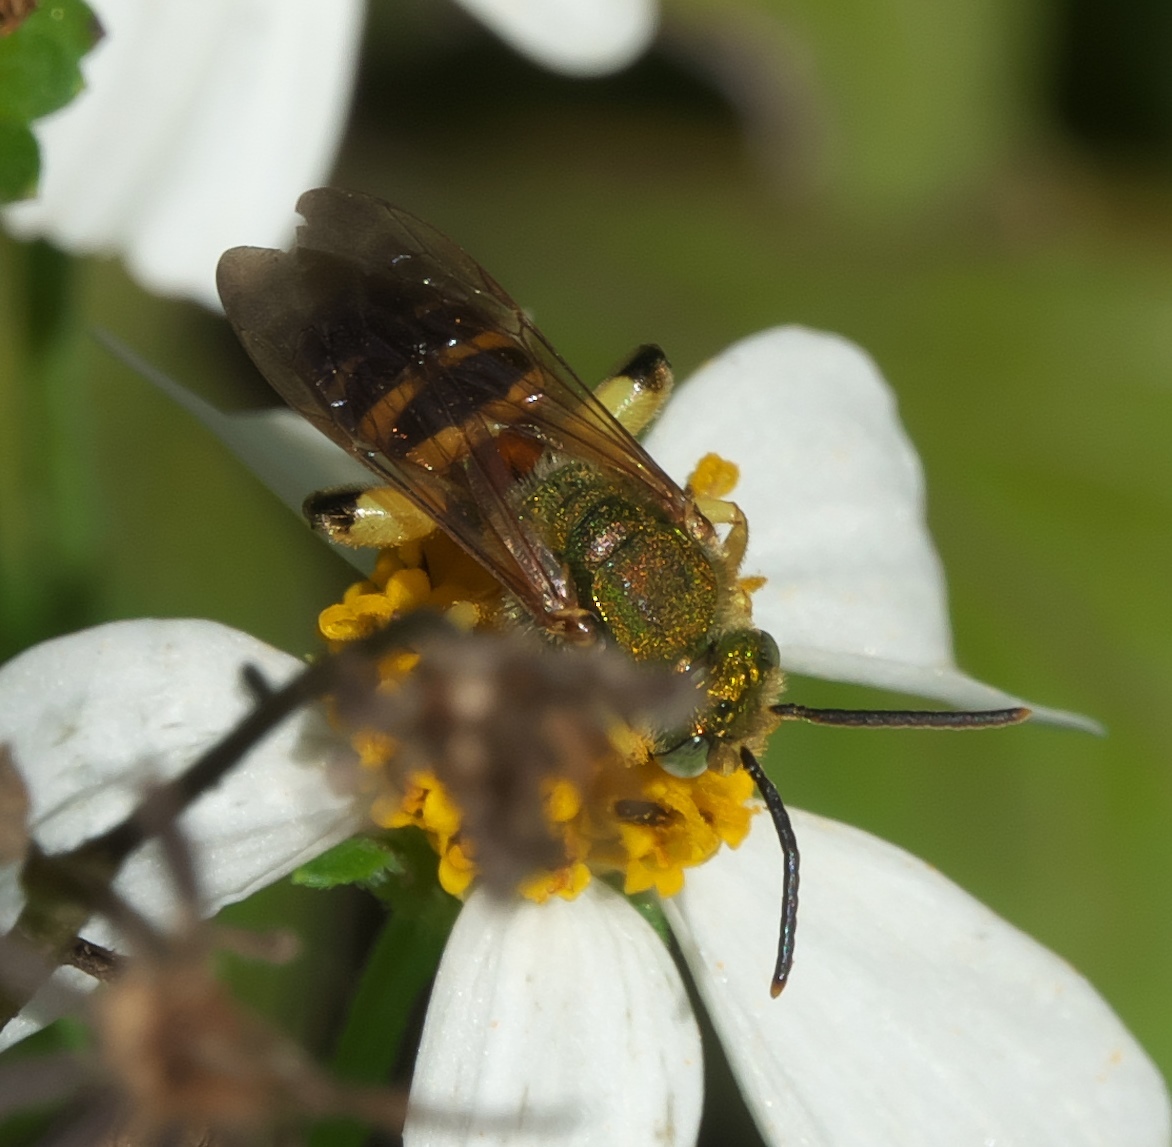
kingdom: Animalia
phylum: Arthropoda
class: Insecta
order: Hymenoptera
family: Halictidae
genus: Agapostemon
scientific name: Agapostemon splendens
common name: Brown-winged striped sweat bee
